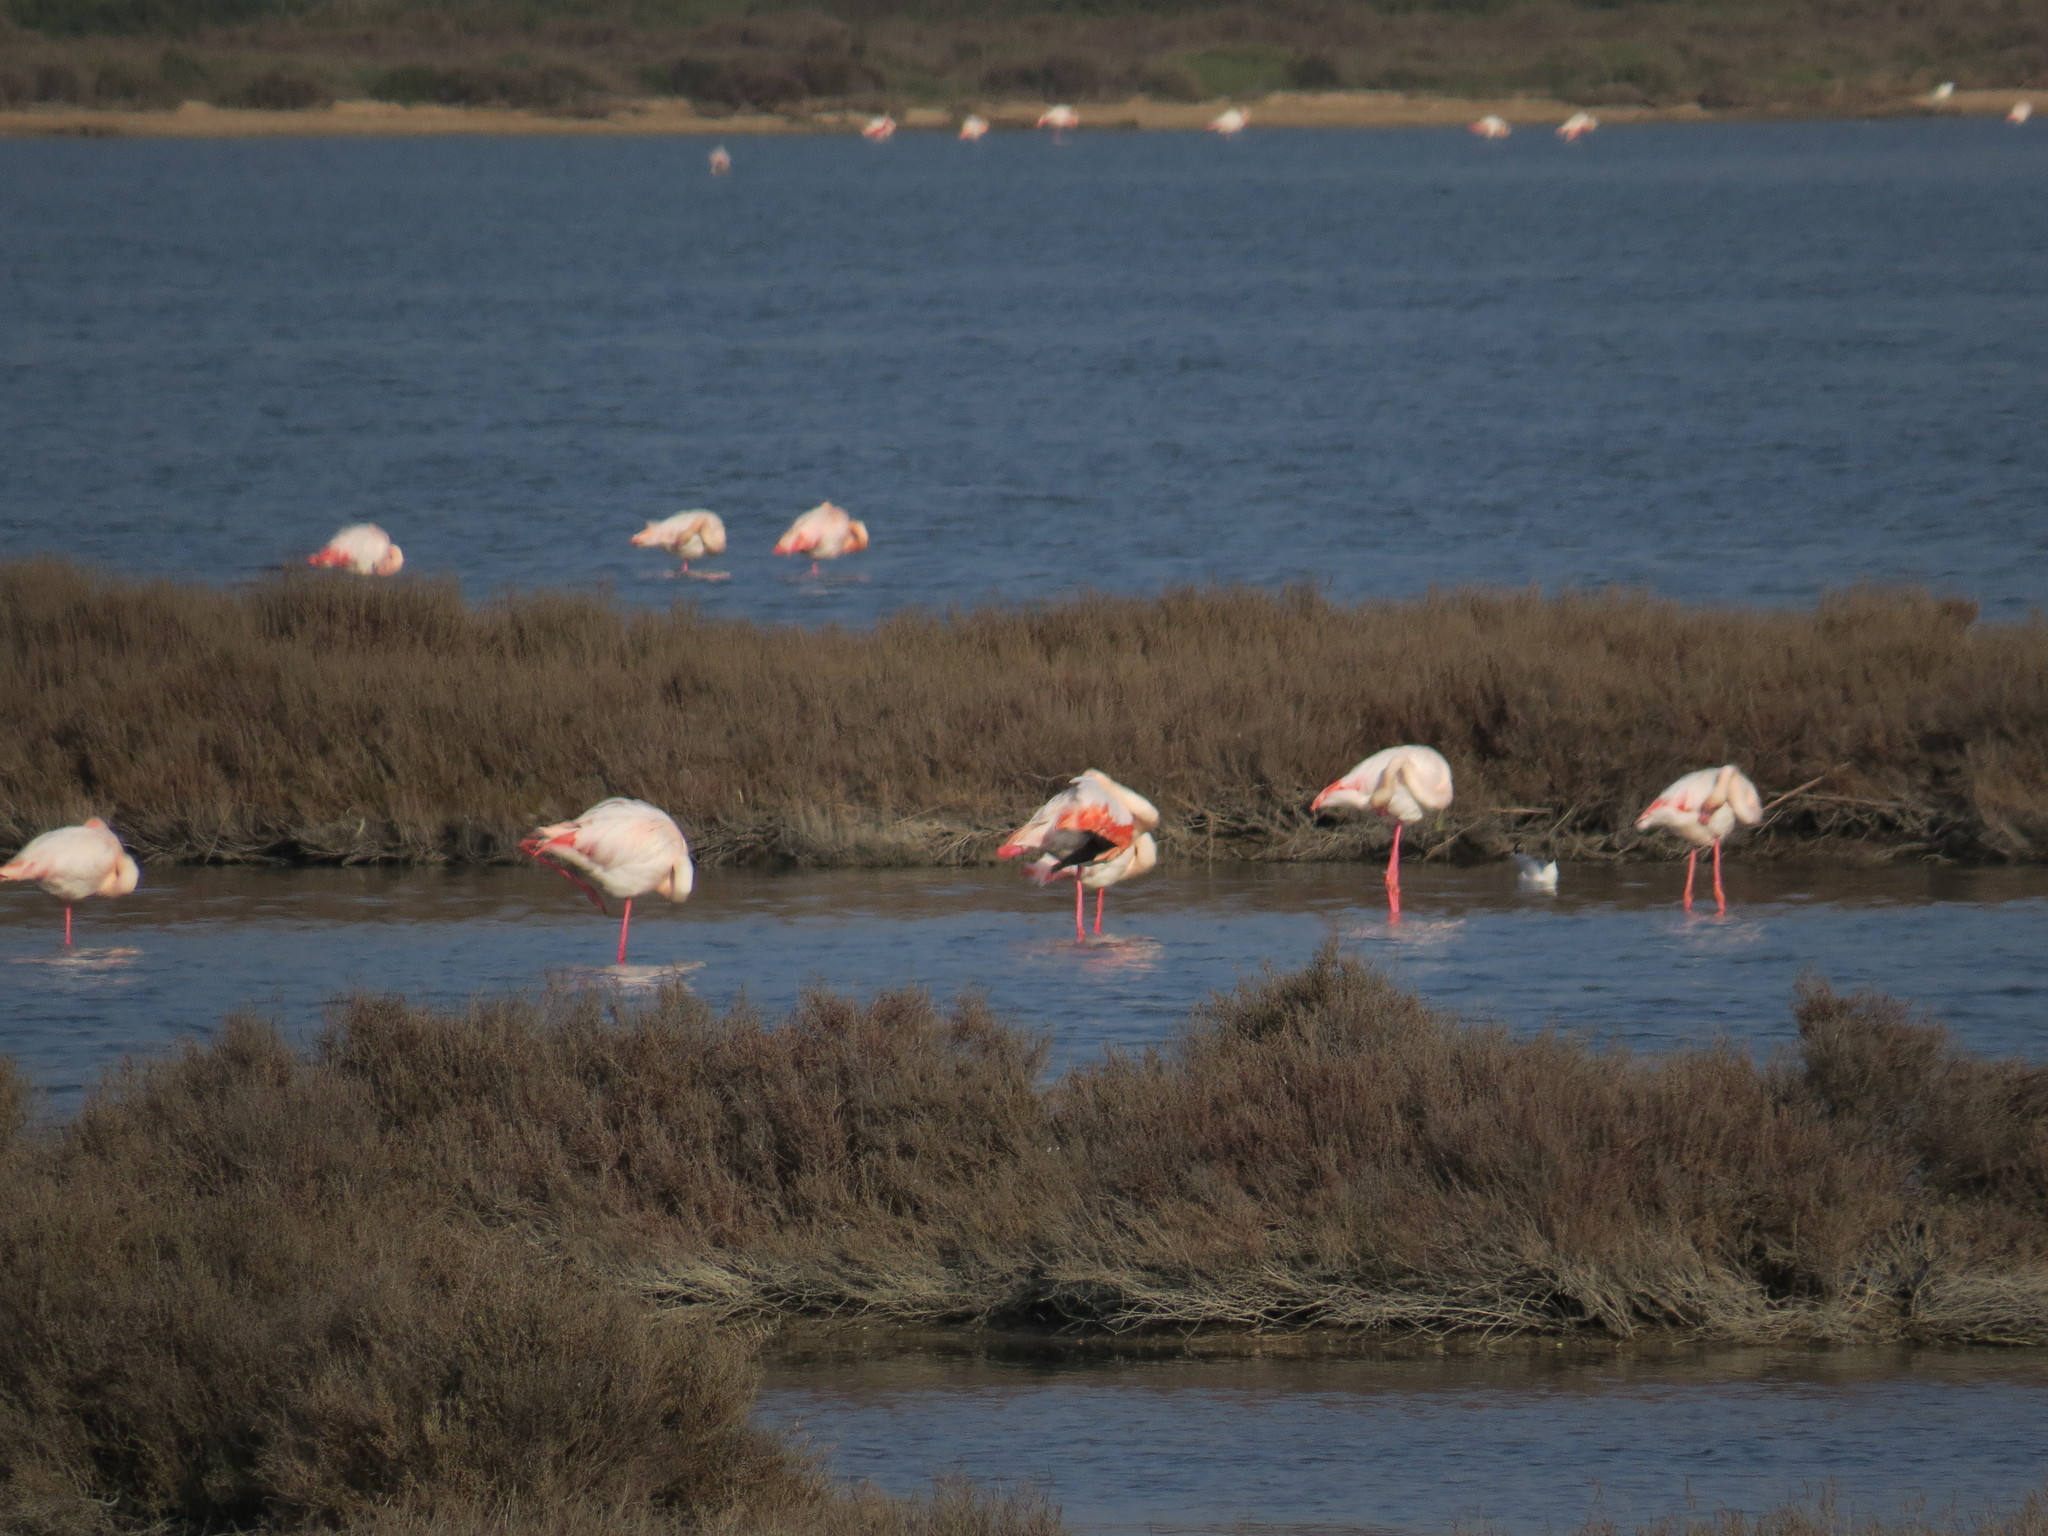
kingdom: Animalia
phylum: Chordata
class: Aves
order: Phoenicopteriformes
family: Phoenicopteridae
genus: Phoenicopterus
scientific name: Phoenicopterus roseus
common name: Greater flamingo
